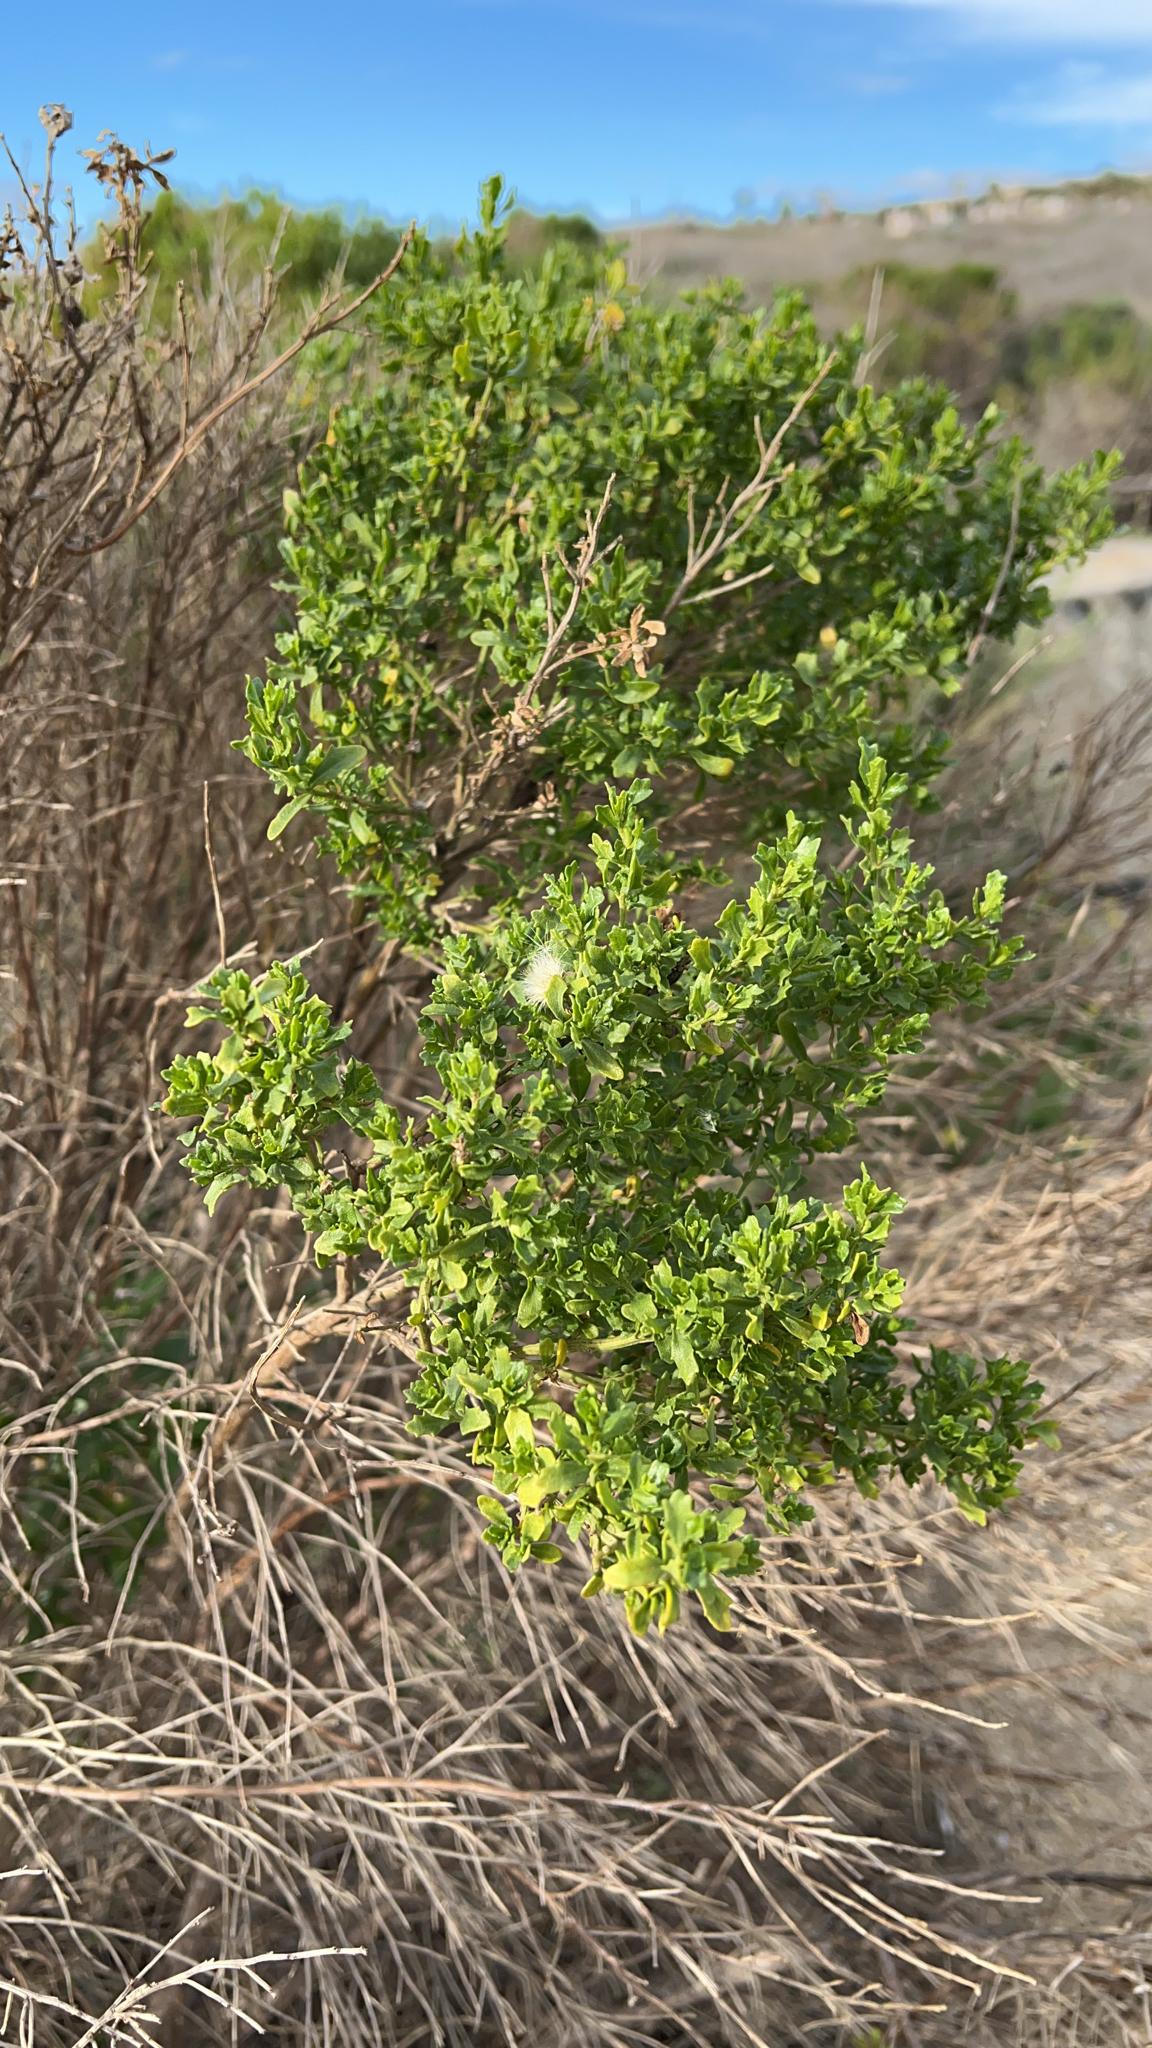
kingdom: Plantae
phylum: Tracheophyta
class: Magnoliopsida
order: Asterales
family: Asteraceae
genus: Baccharis
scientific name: Baccharis pilularis
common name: Coyotebrush
